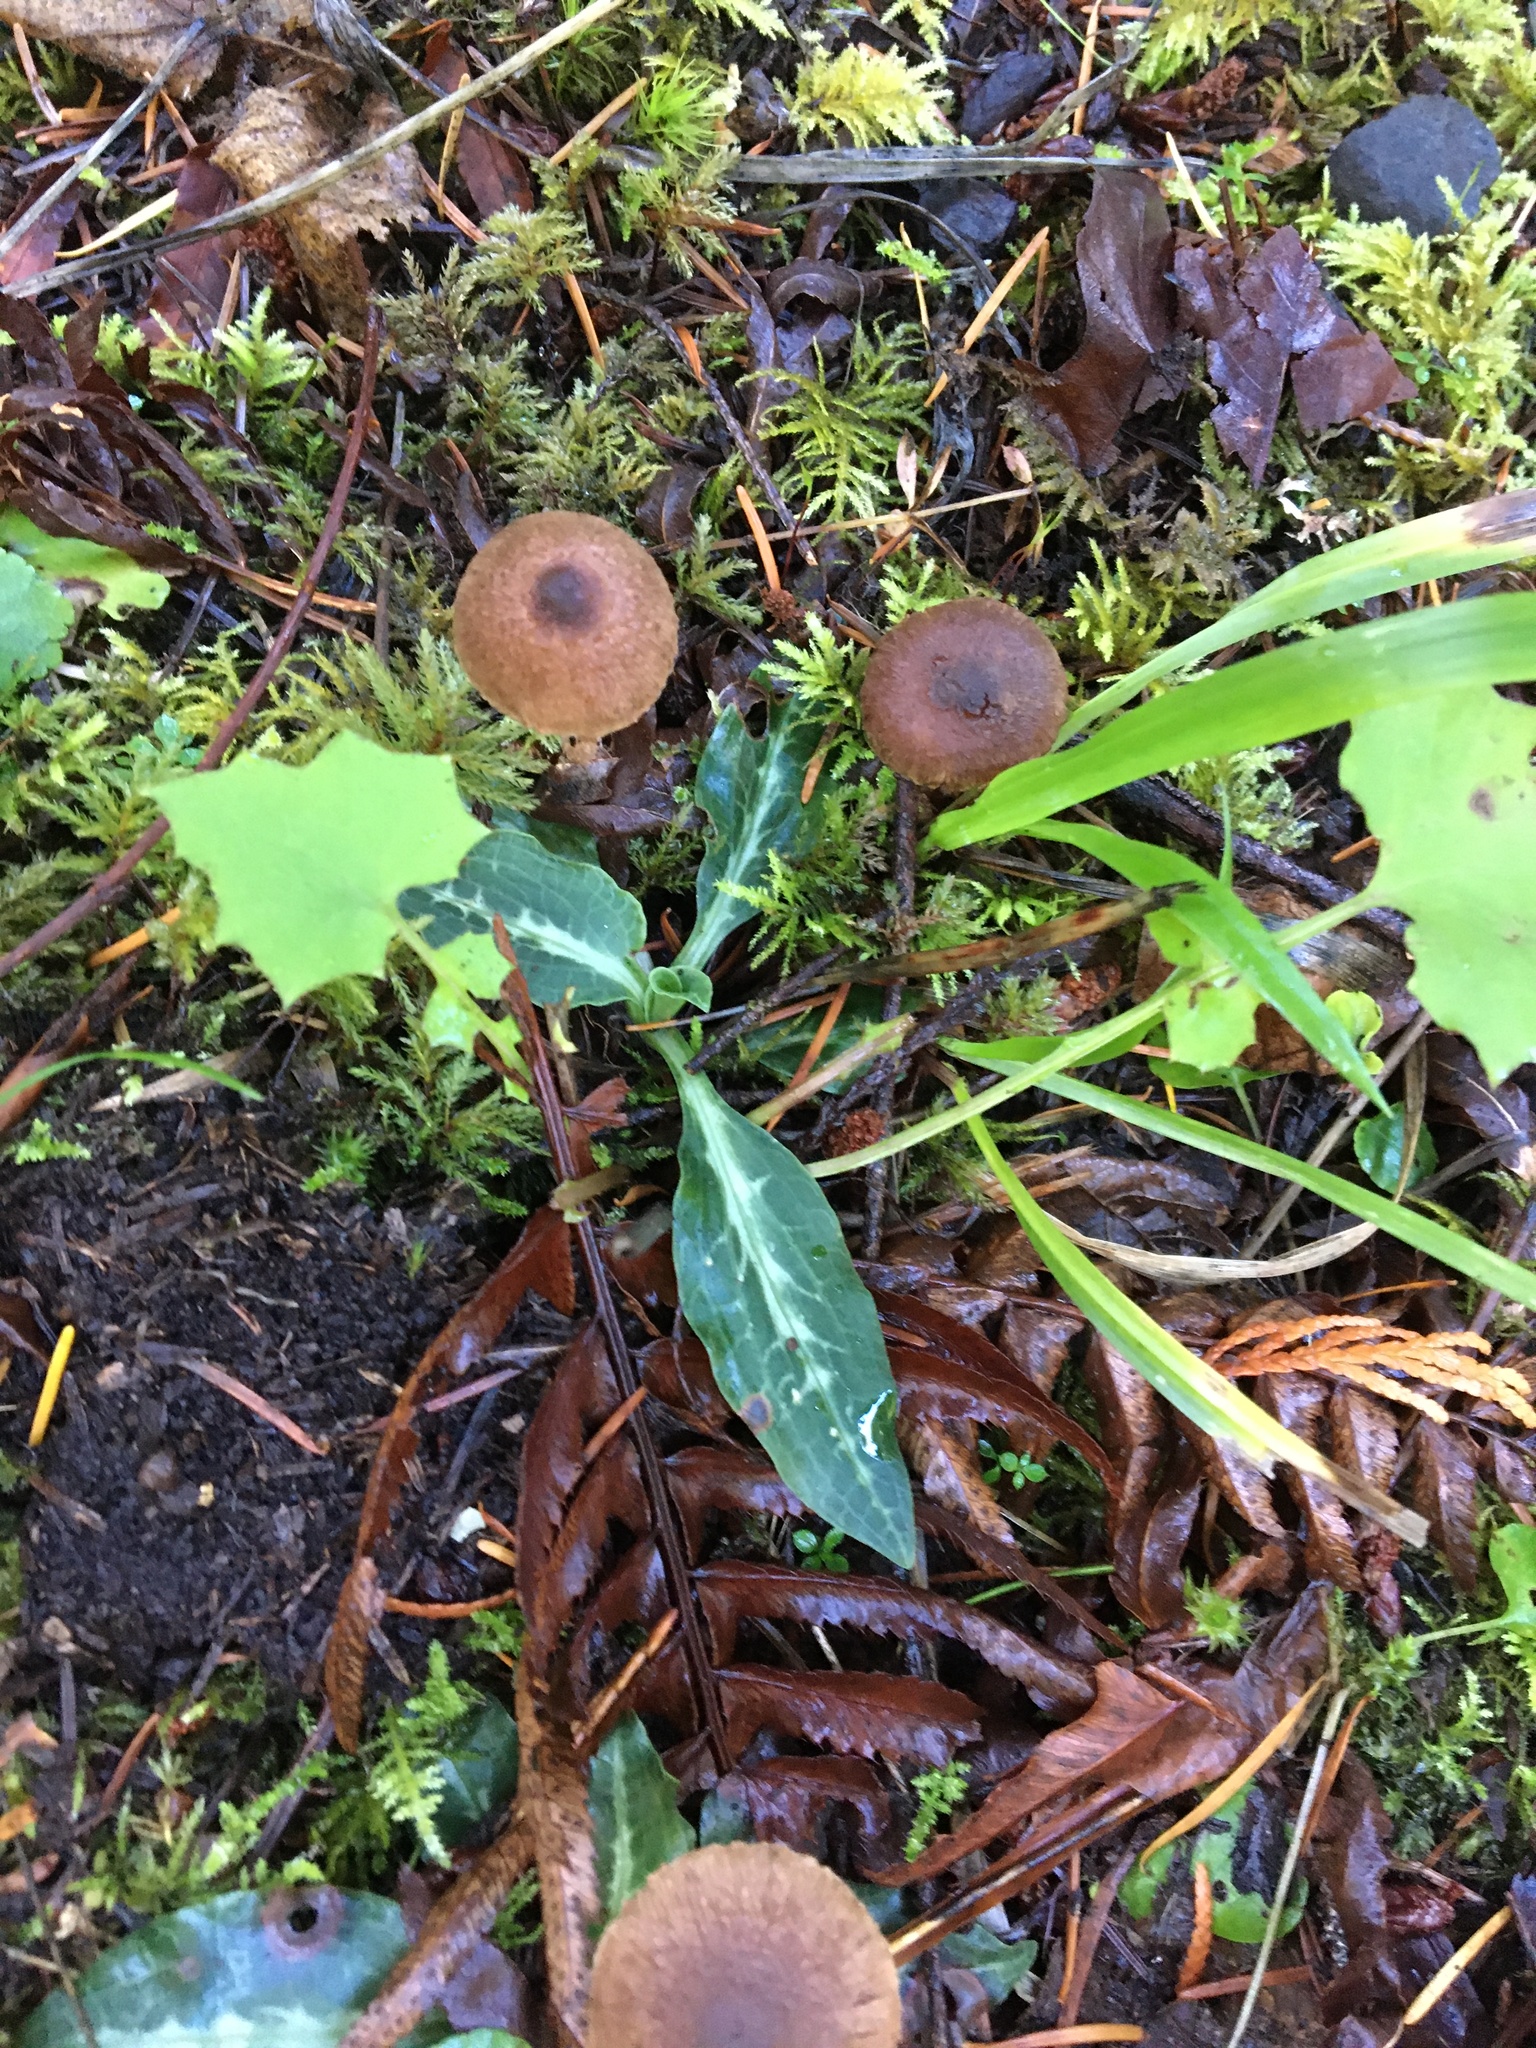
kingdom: Plantae
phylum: Tracheophyta
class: Liliopsida
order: Asparagales
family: Orchidaceae
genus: Goodyera
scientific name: Goodyera oblongifolia
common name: Giant rattlesnake-plantain
